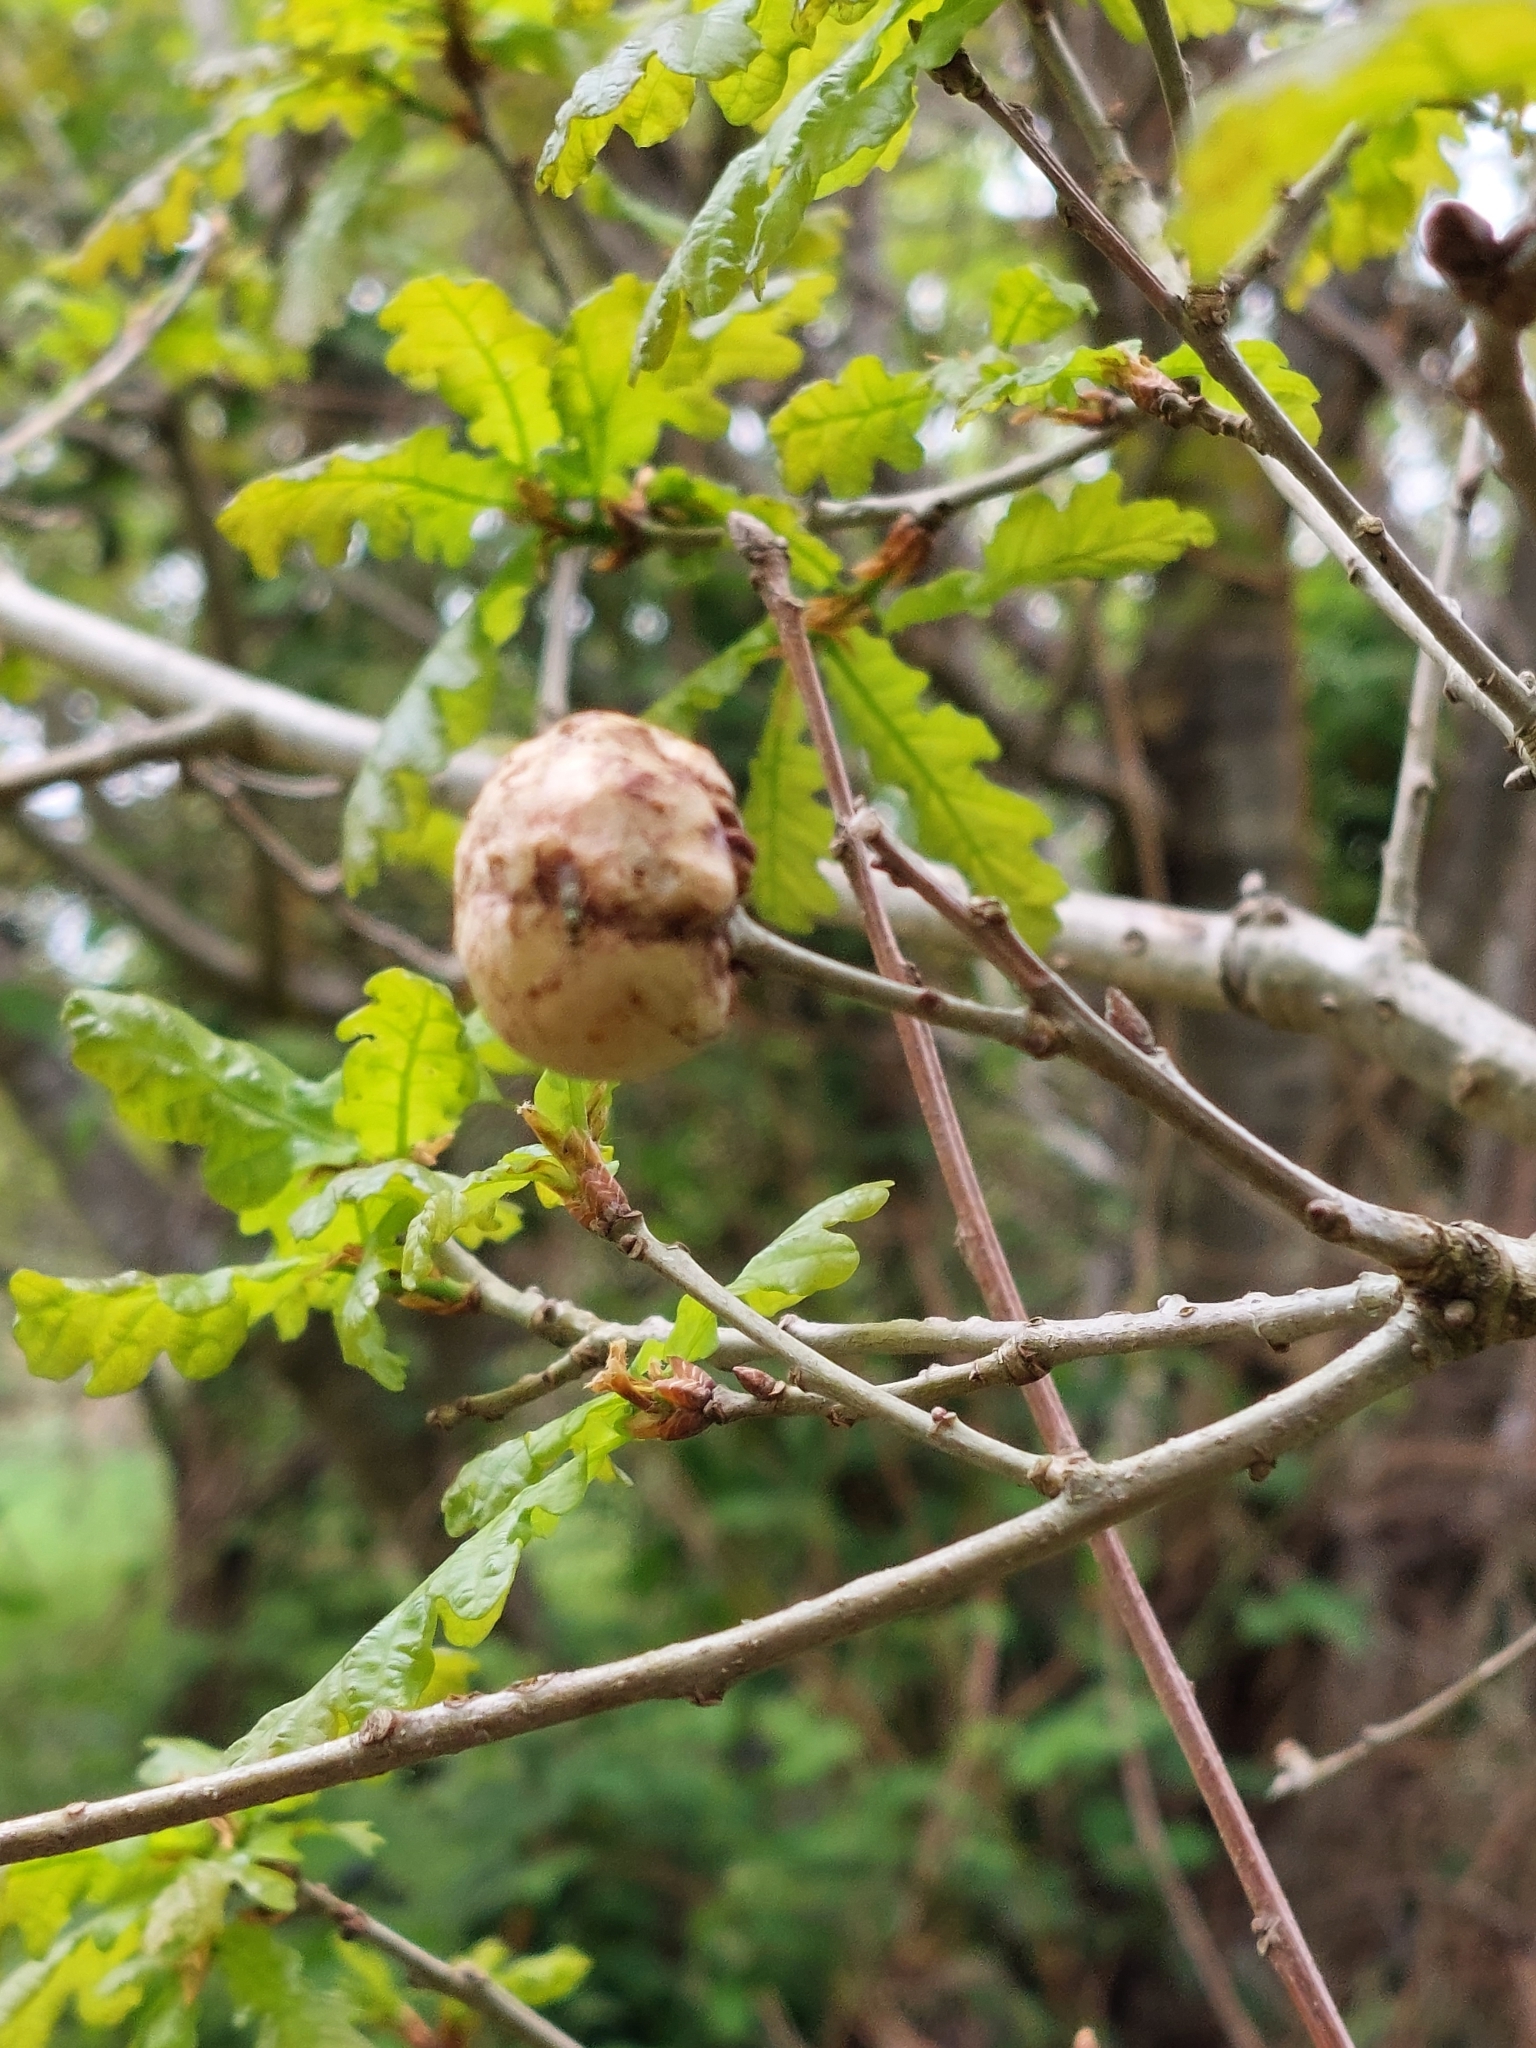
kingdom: Animalia
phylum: Arthropoda
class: Insecta
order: Hymenoptera
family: Cynipidae
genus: Biorhiza
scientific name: Biorhiza pallida
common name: Oak apple
